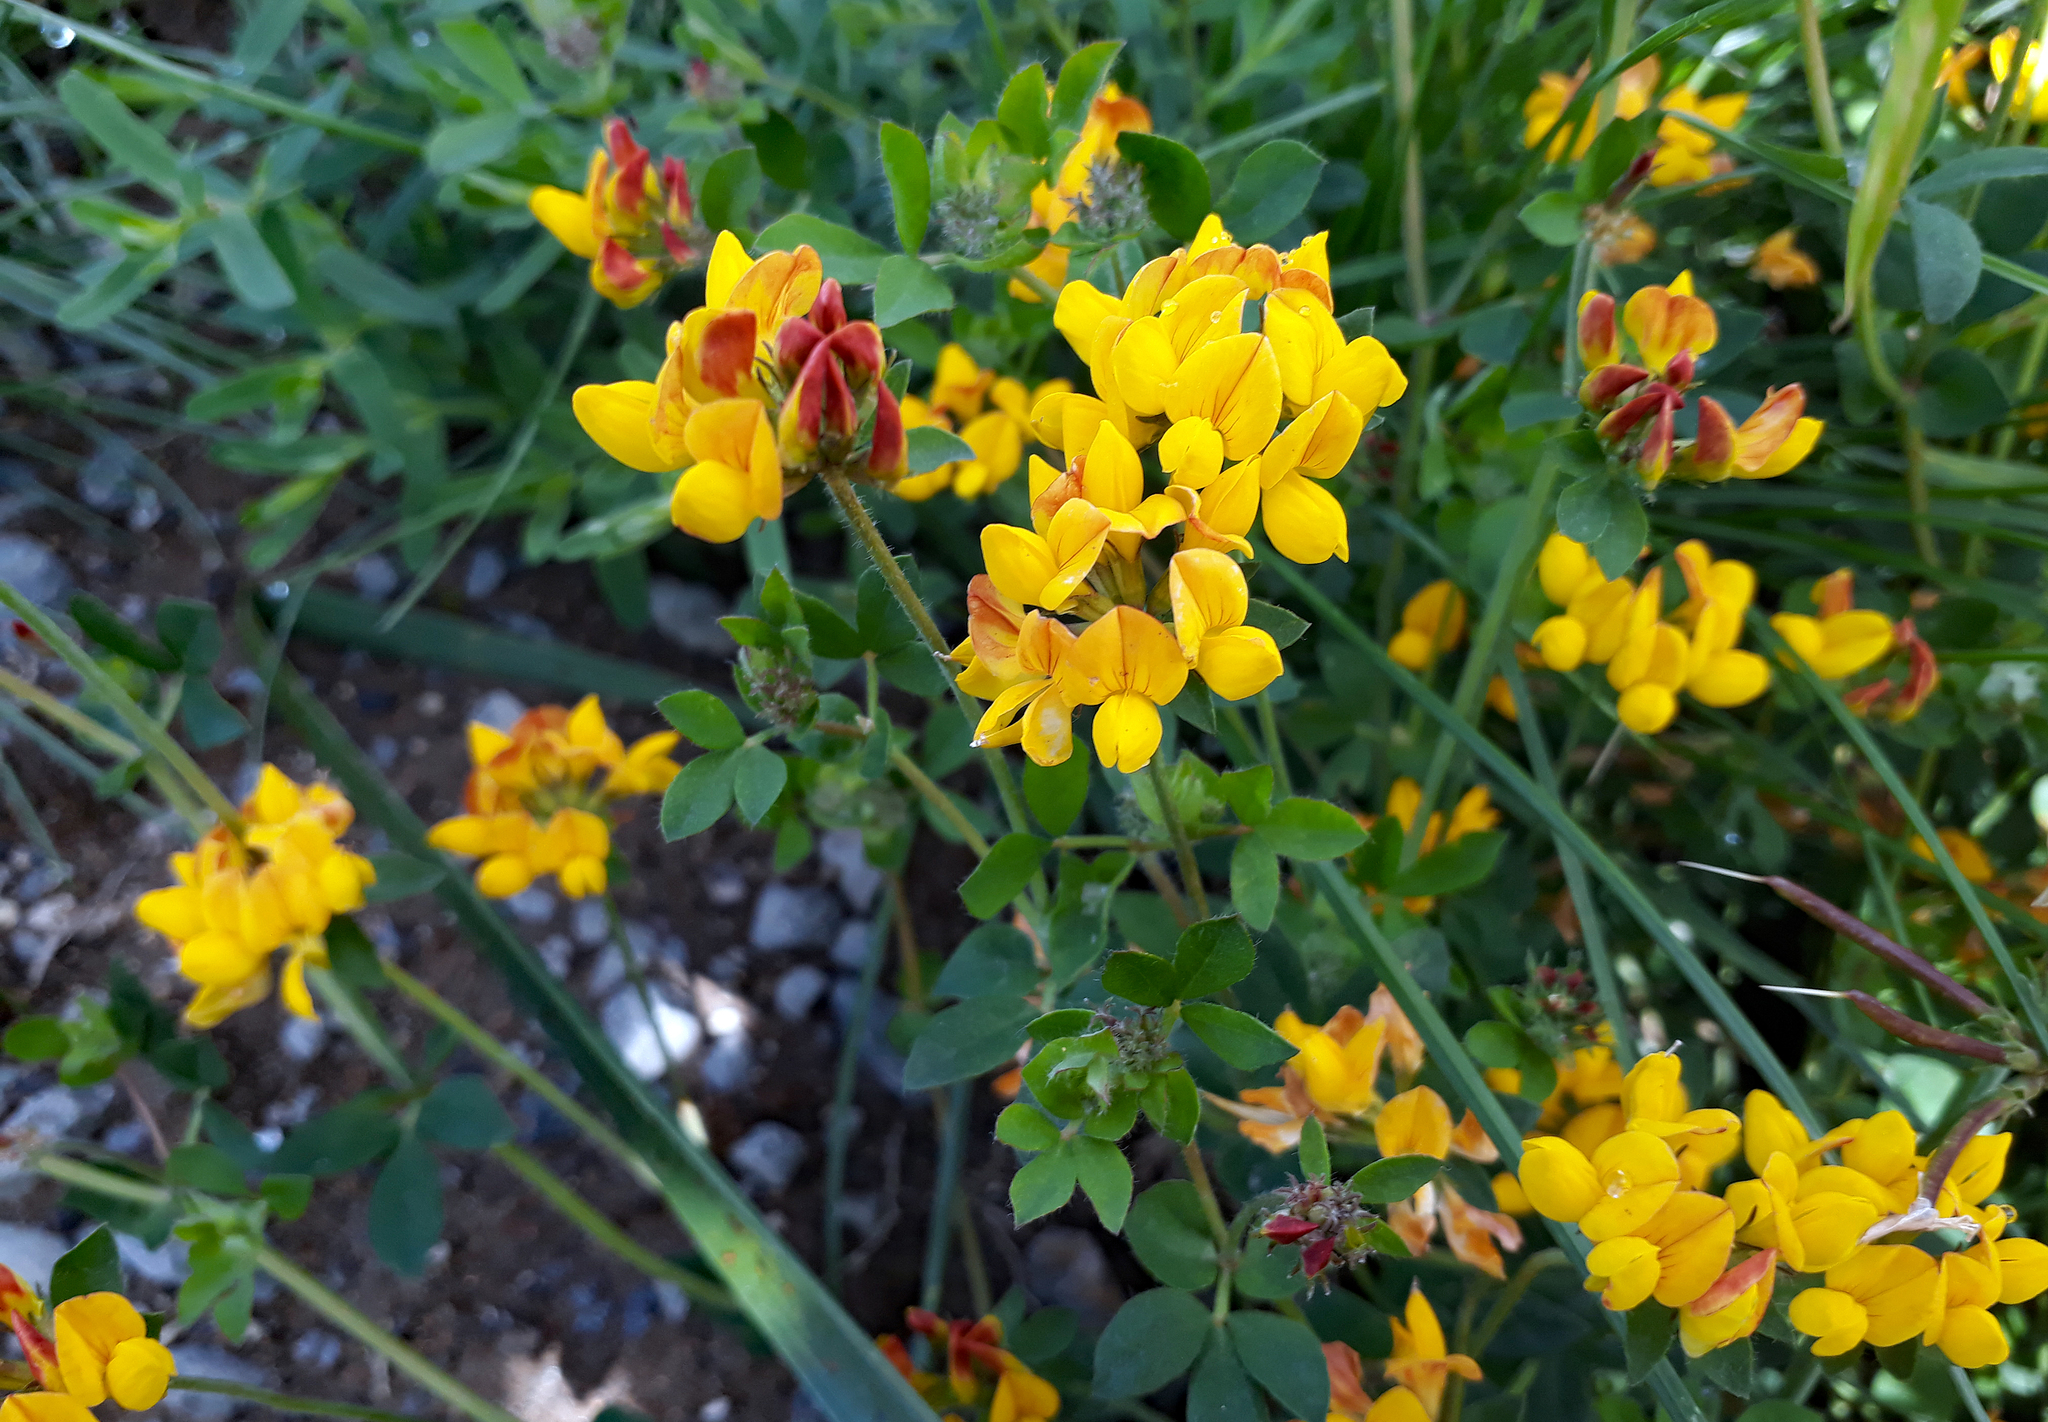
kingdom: Plantae
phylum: Tracheophyta
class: Magnoliopsida
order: Fabales
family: Fabaceae
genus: Lotus
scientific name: Lotus pedunculatus
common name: Greater birdsfoot-trefoil
